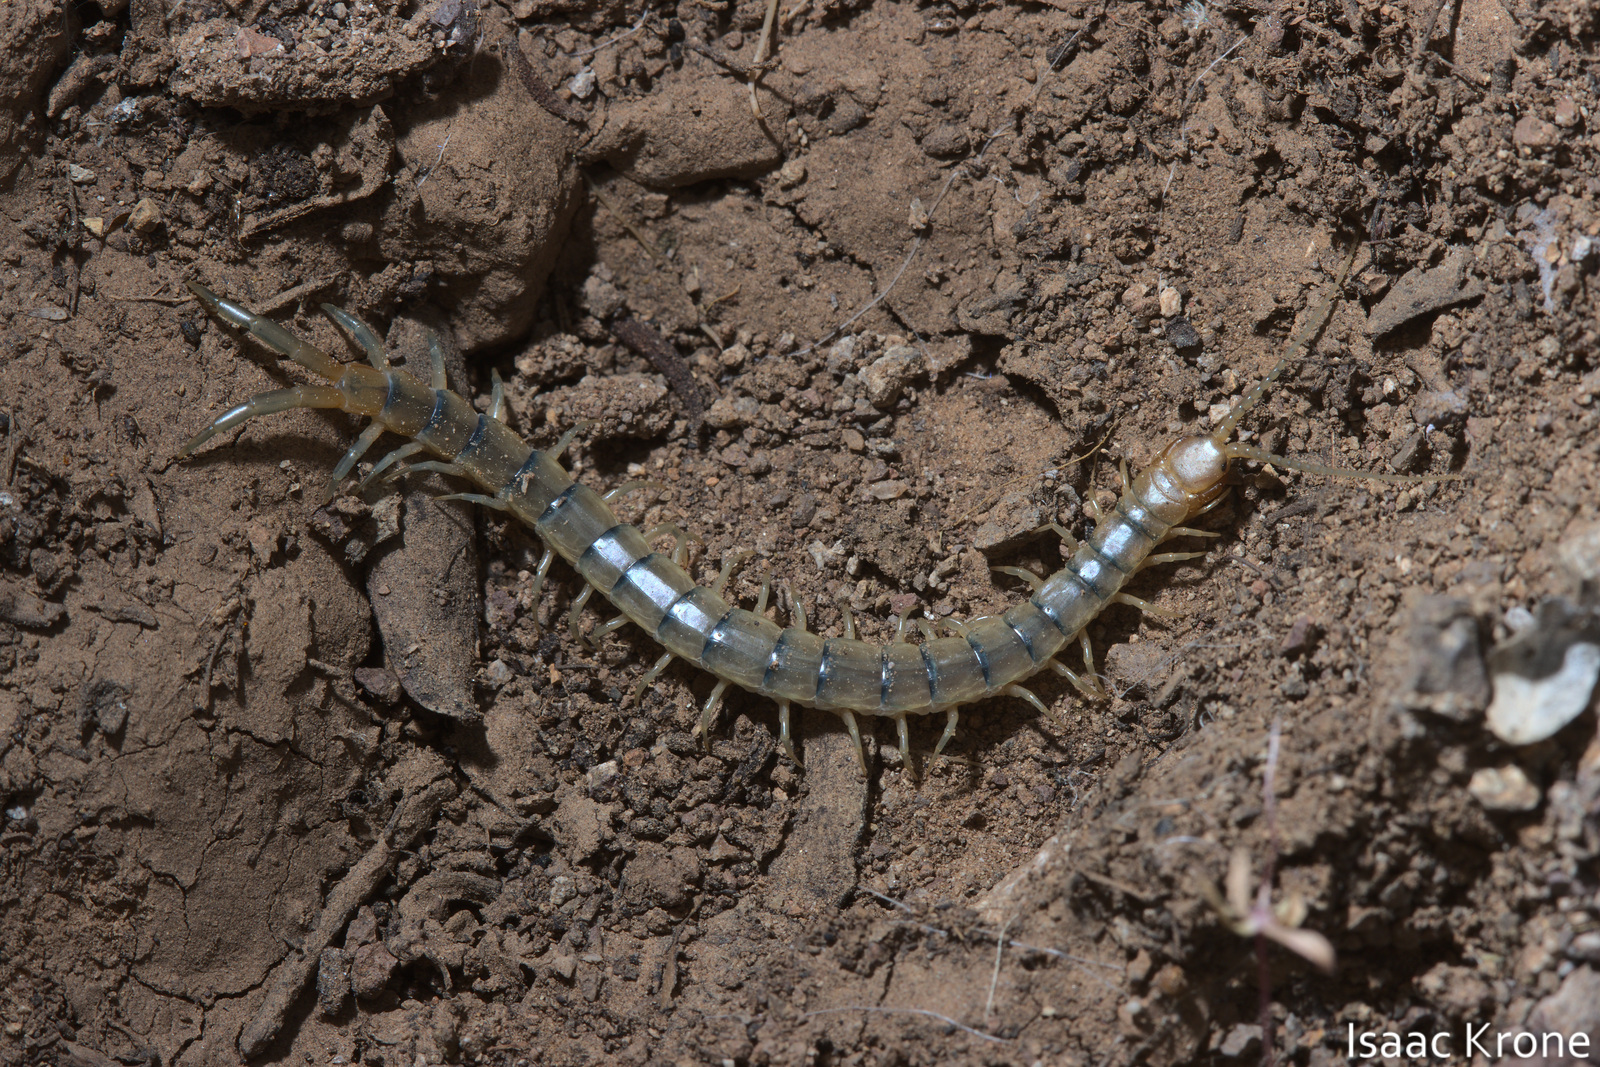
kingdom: Animalia
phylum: Arthropoda
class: Chilopoda
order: Scolopendromorpha
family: Scolopendridae
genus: Scolopendra
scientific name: Scolopendra polymorpha
